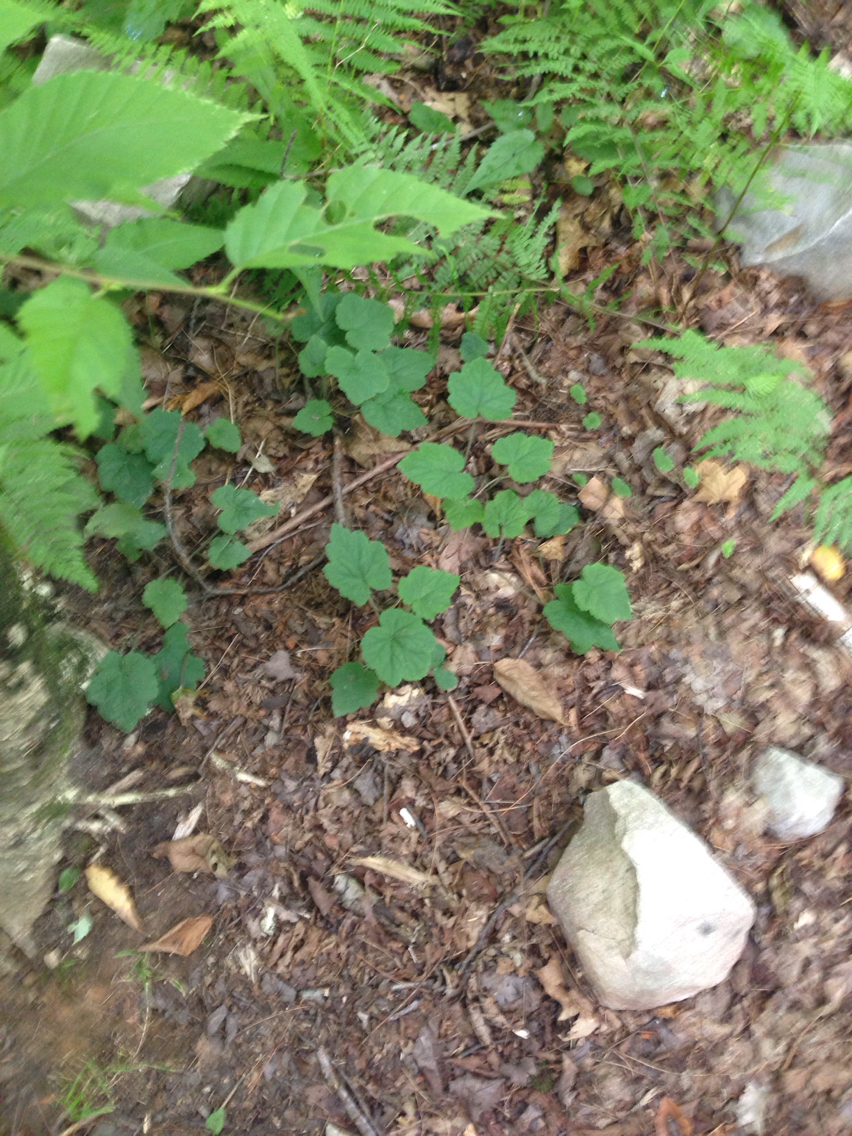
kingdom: Plantae
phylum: Tracheophyta
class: Magnoliopsida
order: Saxifragales
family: Saxifragaceae
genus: Tiarella
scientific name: Tiarella stolonifera
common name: Stoloniferous foamflower
